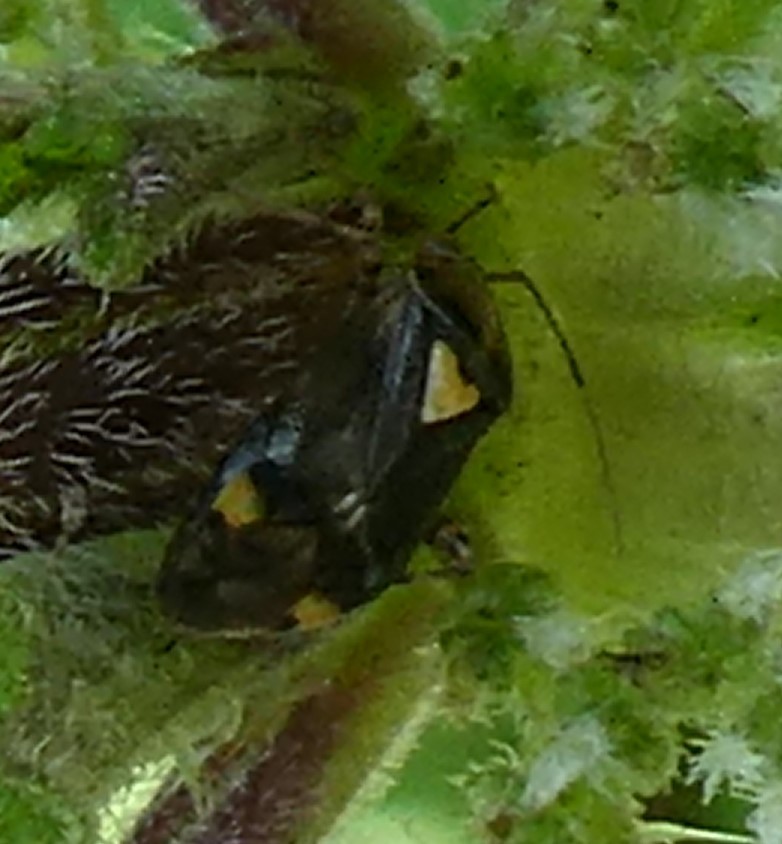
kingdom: Animalia
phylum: Arthropoda
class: Insecta
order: Hemiptera
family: Miridae
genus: Liocoris
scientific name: Liocoris tripustulatus
